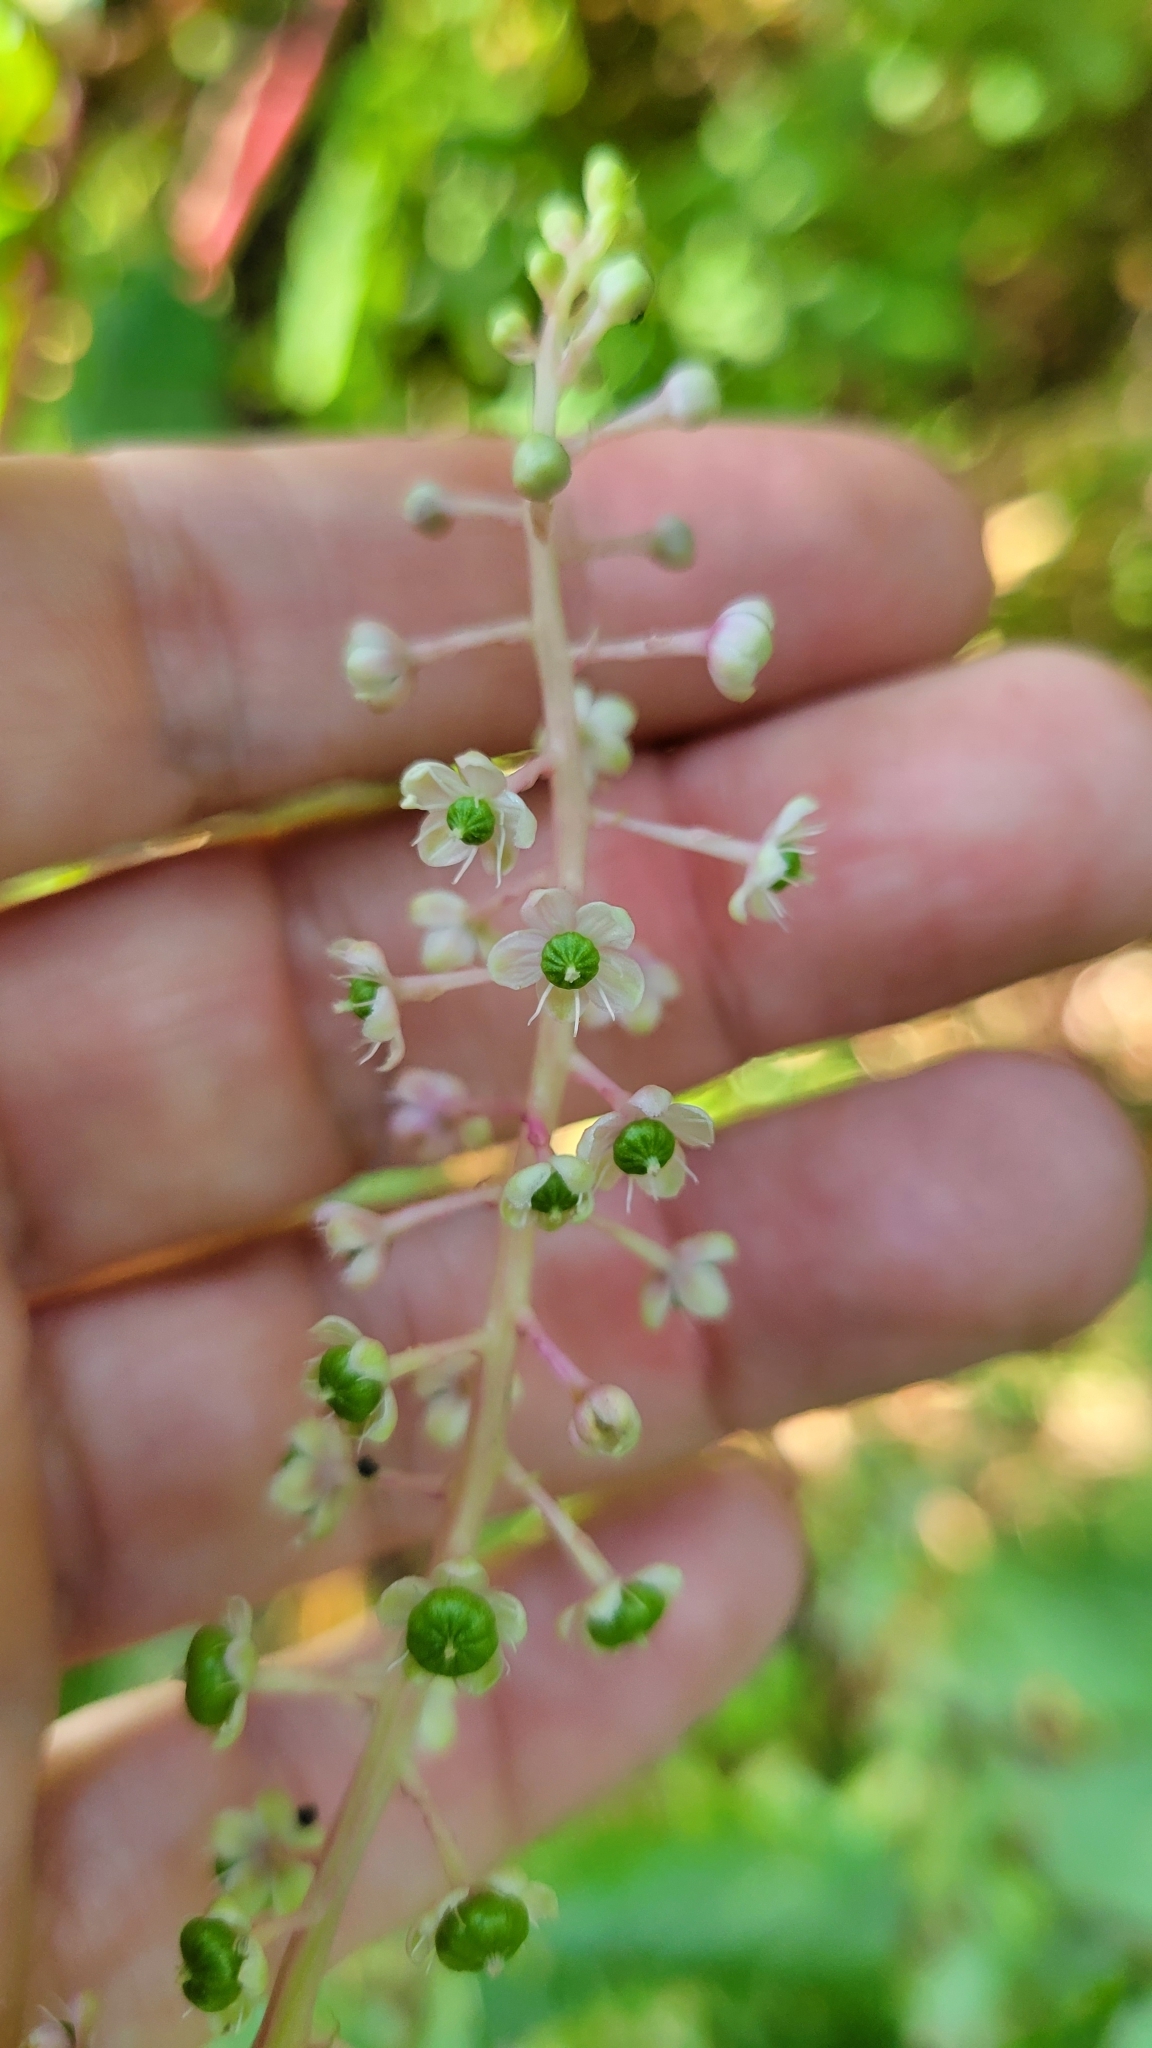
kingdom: Plantae
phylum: Tracheophyta
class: Magnoliopsida
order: Caryophyllales
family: Phytolaccaceae
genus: Phytolacca
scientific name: Phytolacca americana
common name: American pokeweed
